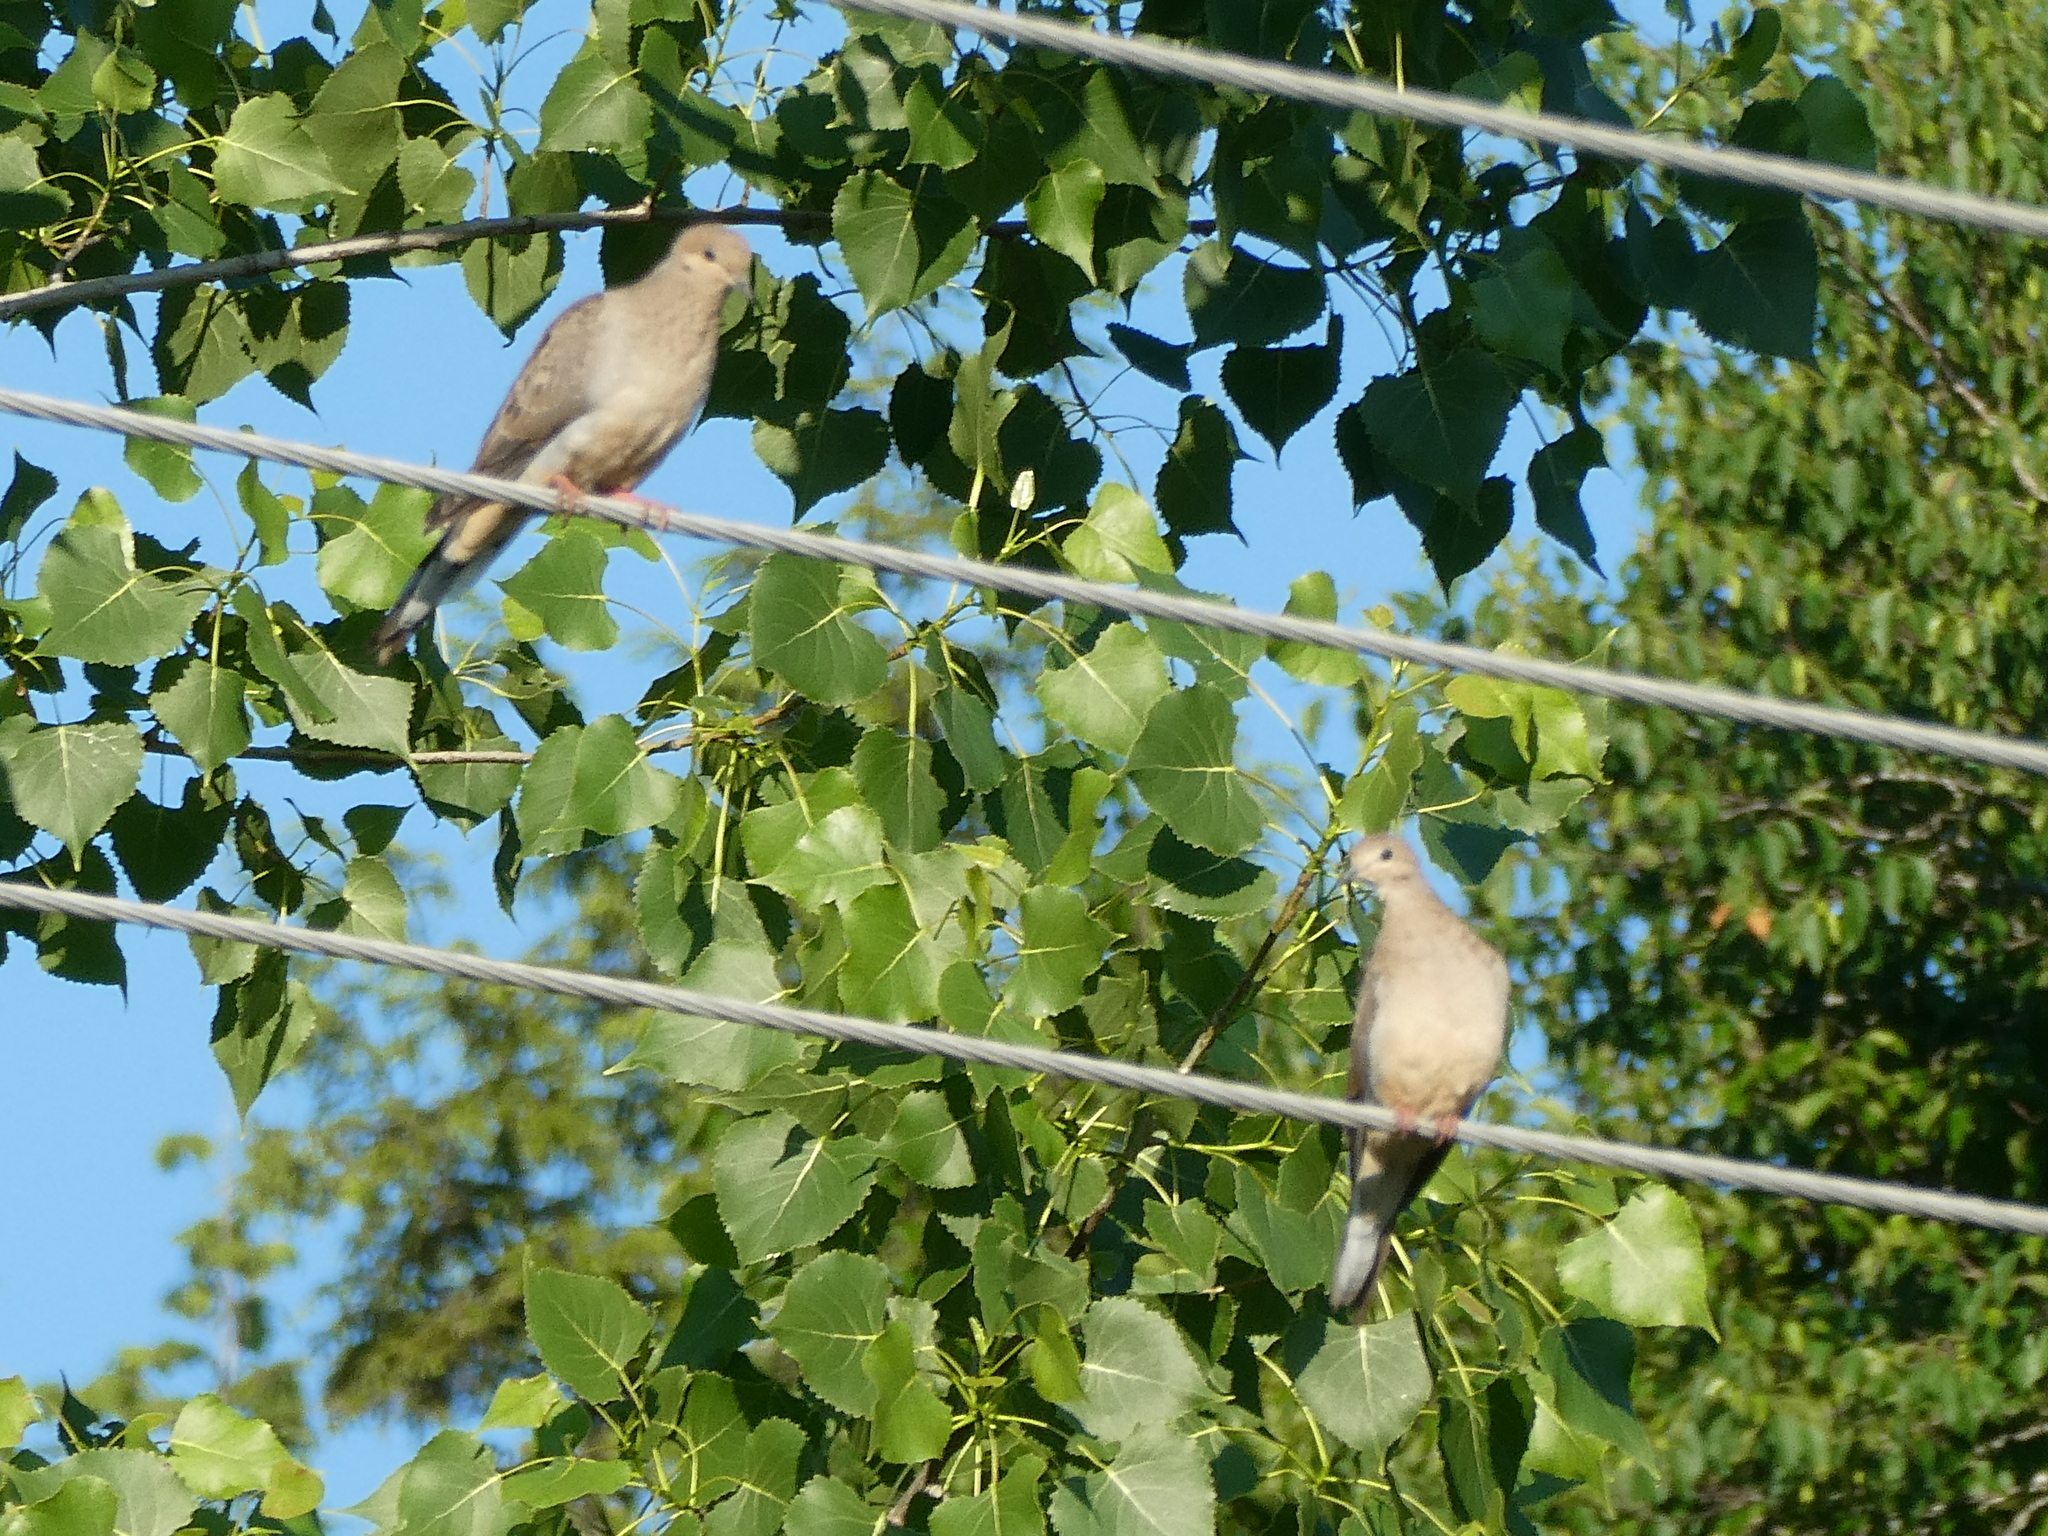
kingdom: Animalia
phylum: Chordata
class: Aves
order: Columbiformes
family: Columbidae
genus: Zenaida
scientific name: Zenaida macroura
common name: Mourning dove
